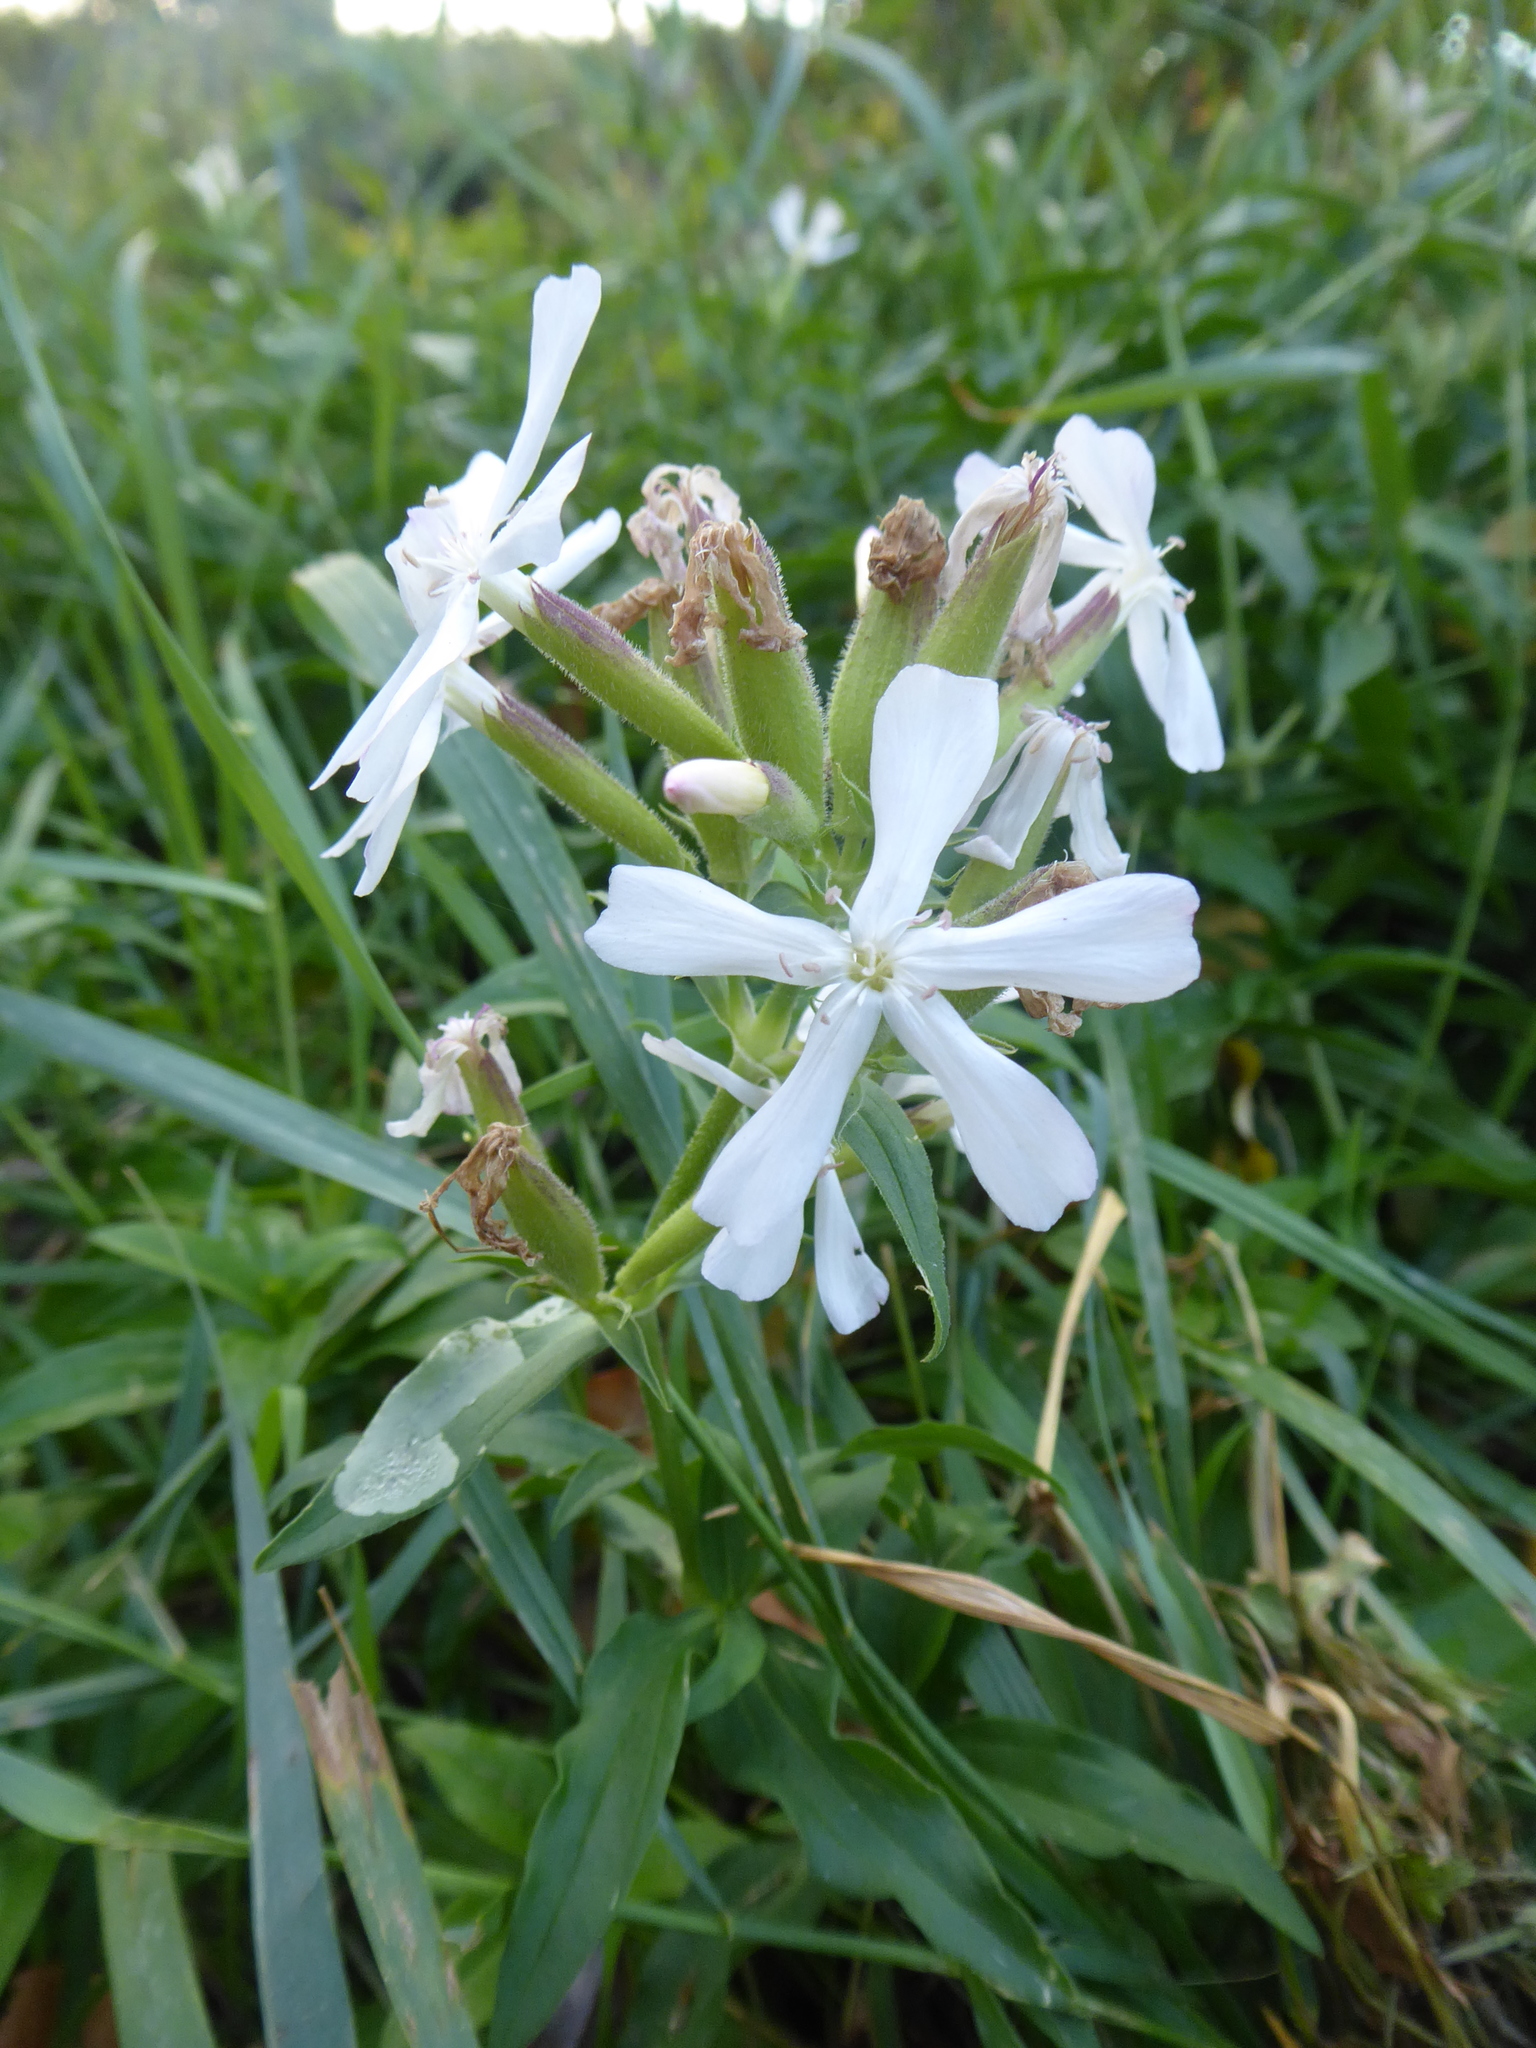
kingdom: Plantae
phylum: Tracheophyta
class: Magnoliopsida
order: Caryophyllales
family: Caryophyllaceae
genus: Saponaria
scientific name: Saponaria officinalis
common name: Soapwort
